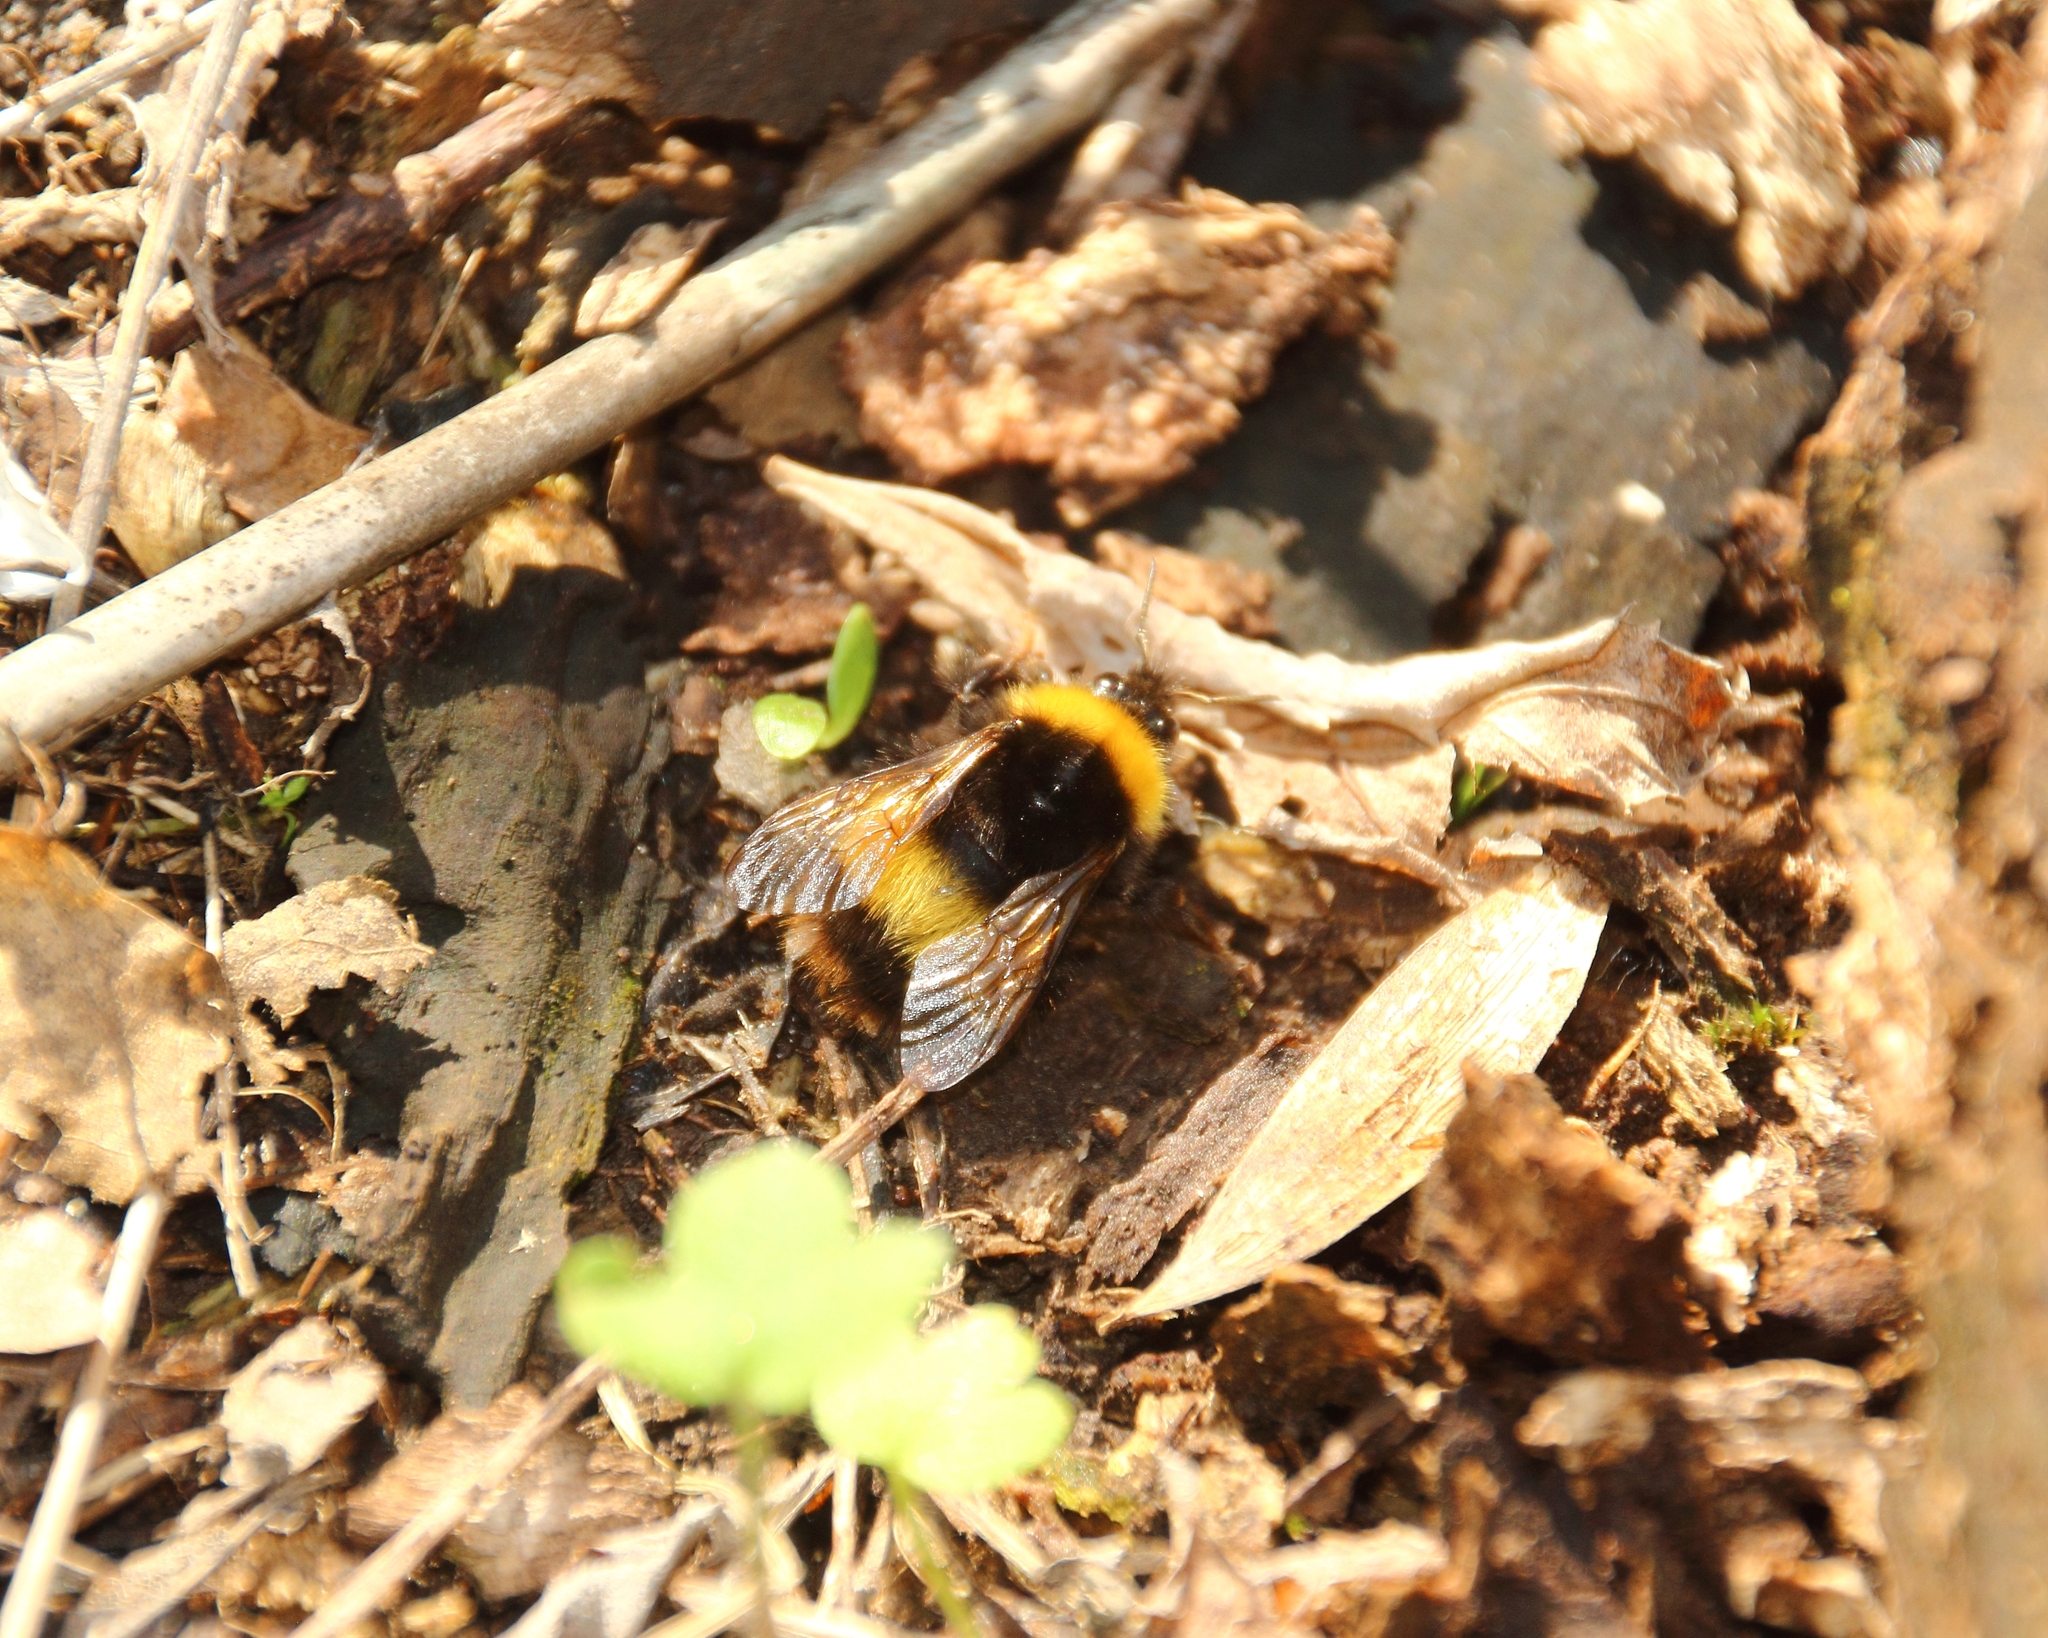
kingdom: Animalia
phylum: Arthropoda
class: Insecta
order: Hymenoptera
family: Apidae
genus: Bombus
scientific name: Bombus haematurus
